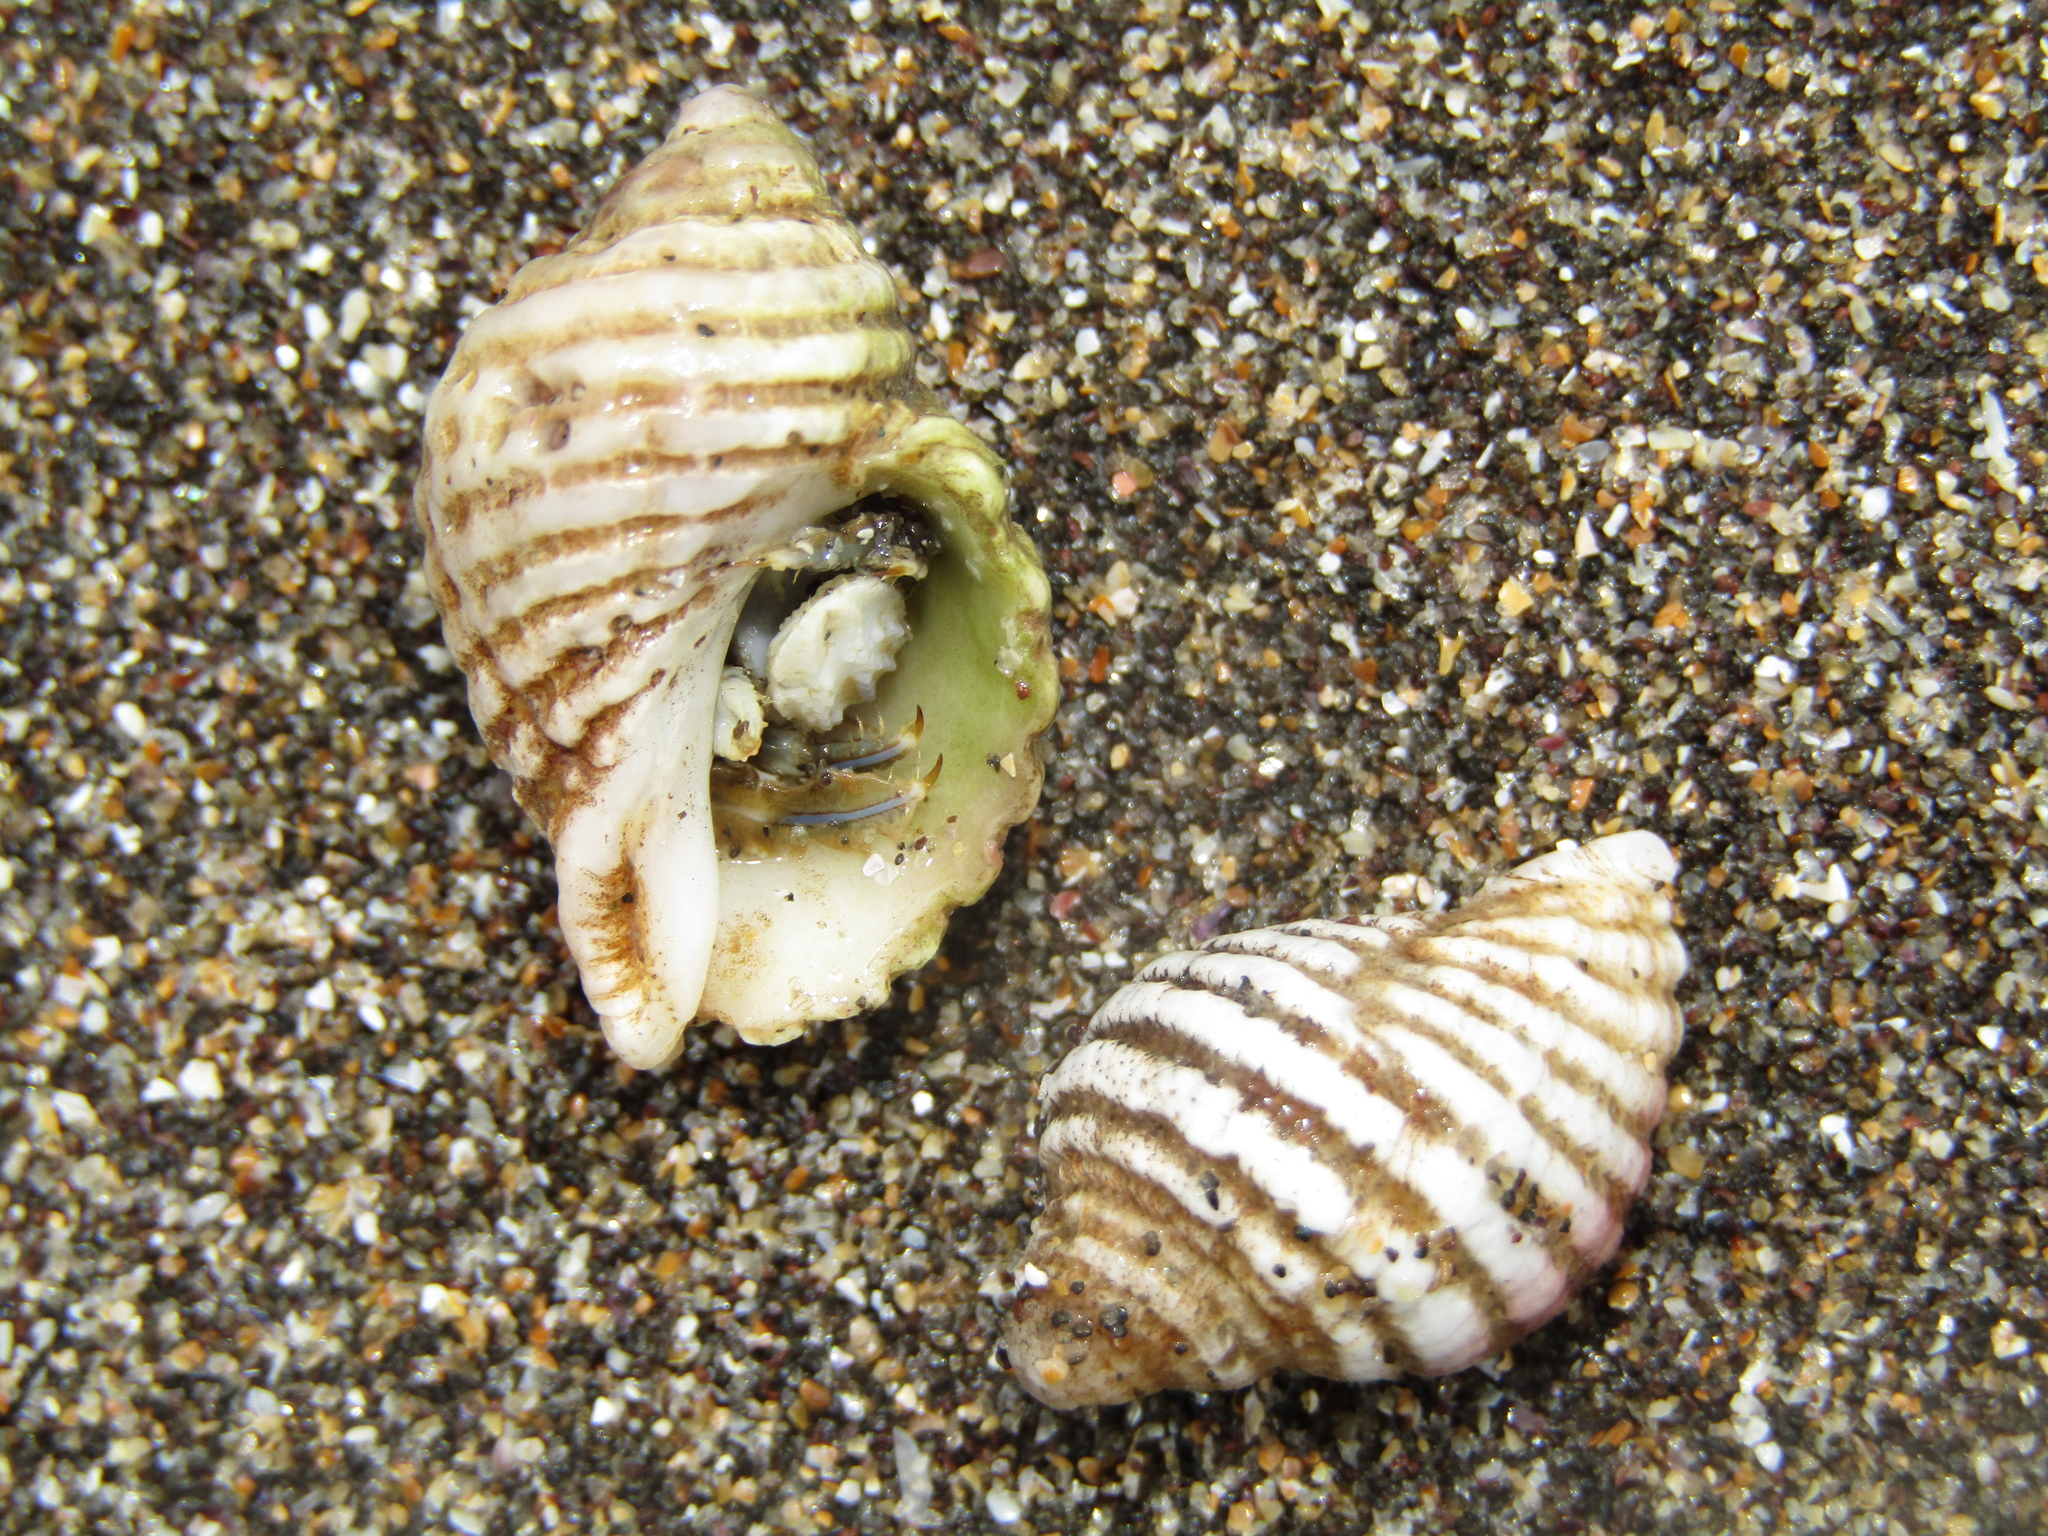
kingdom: Animalia
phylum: Mollusca
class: Gastropoda
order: Neogastropoda
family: Muricidae
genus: Haustrum
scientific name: Haustrum lacunosum
